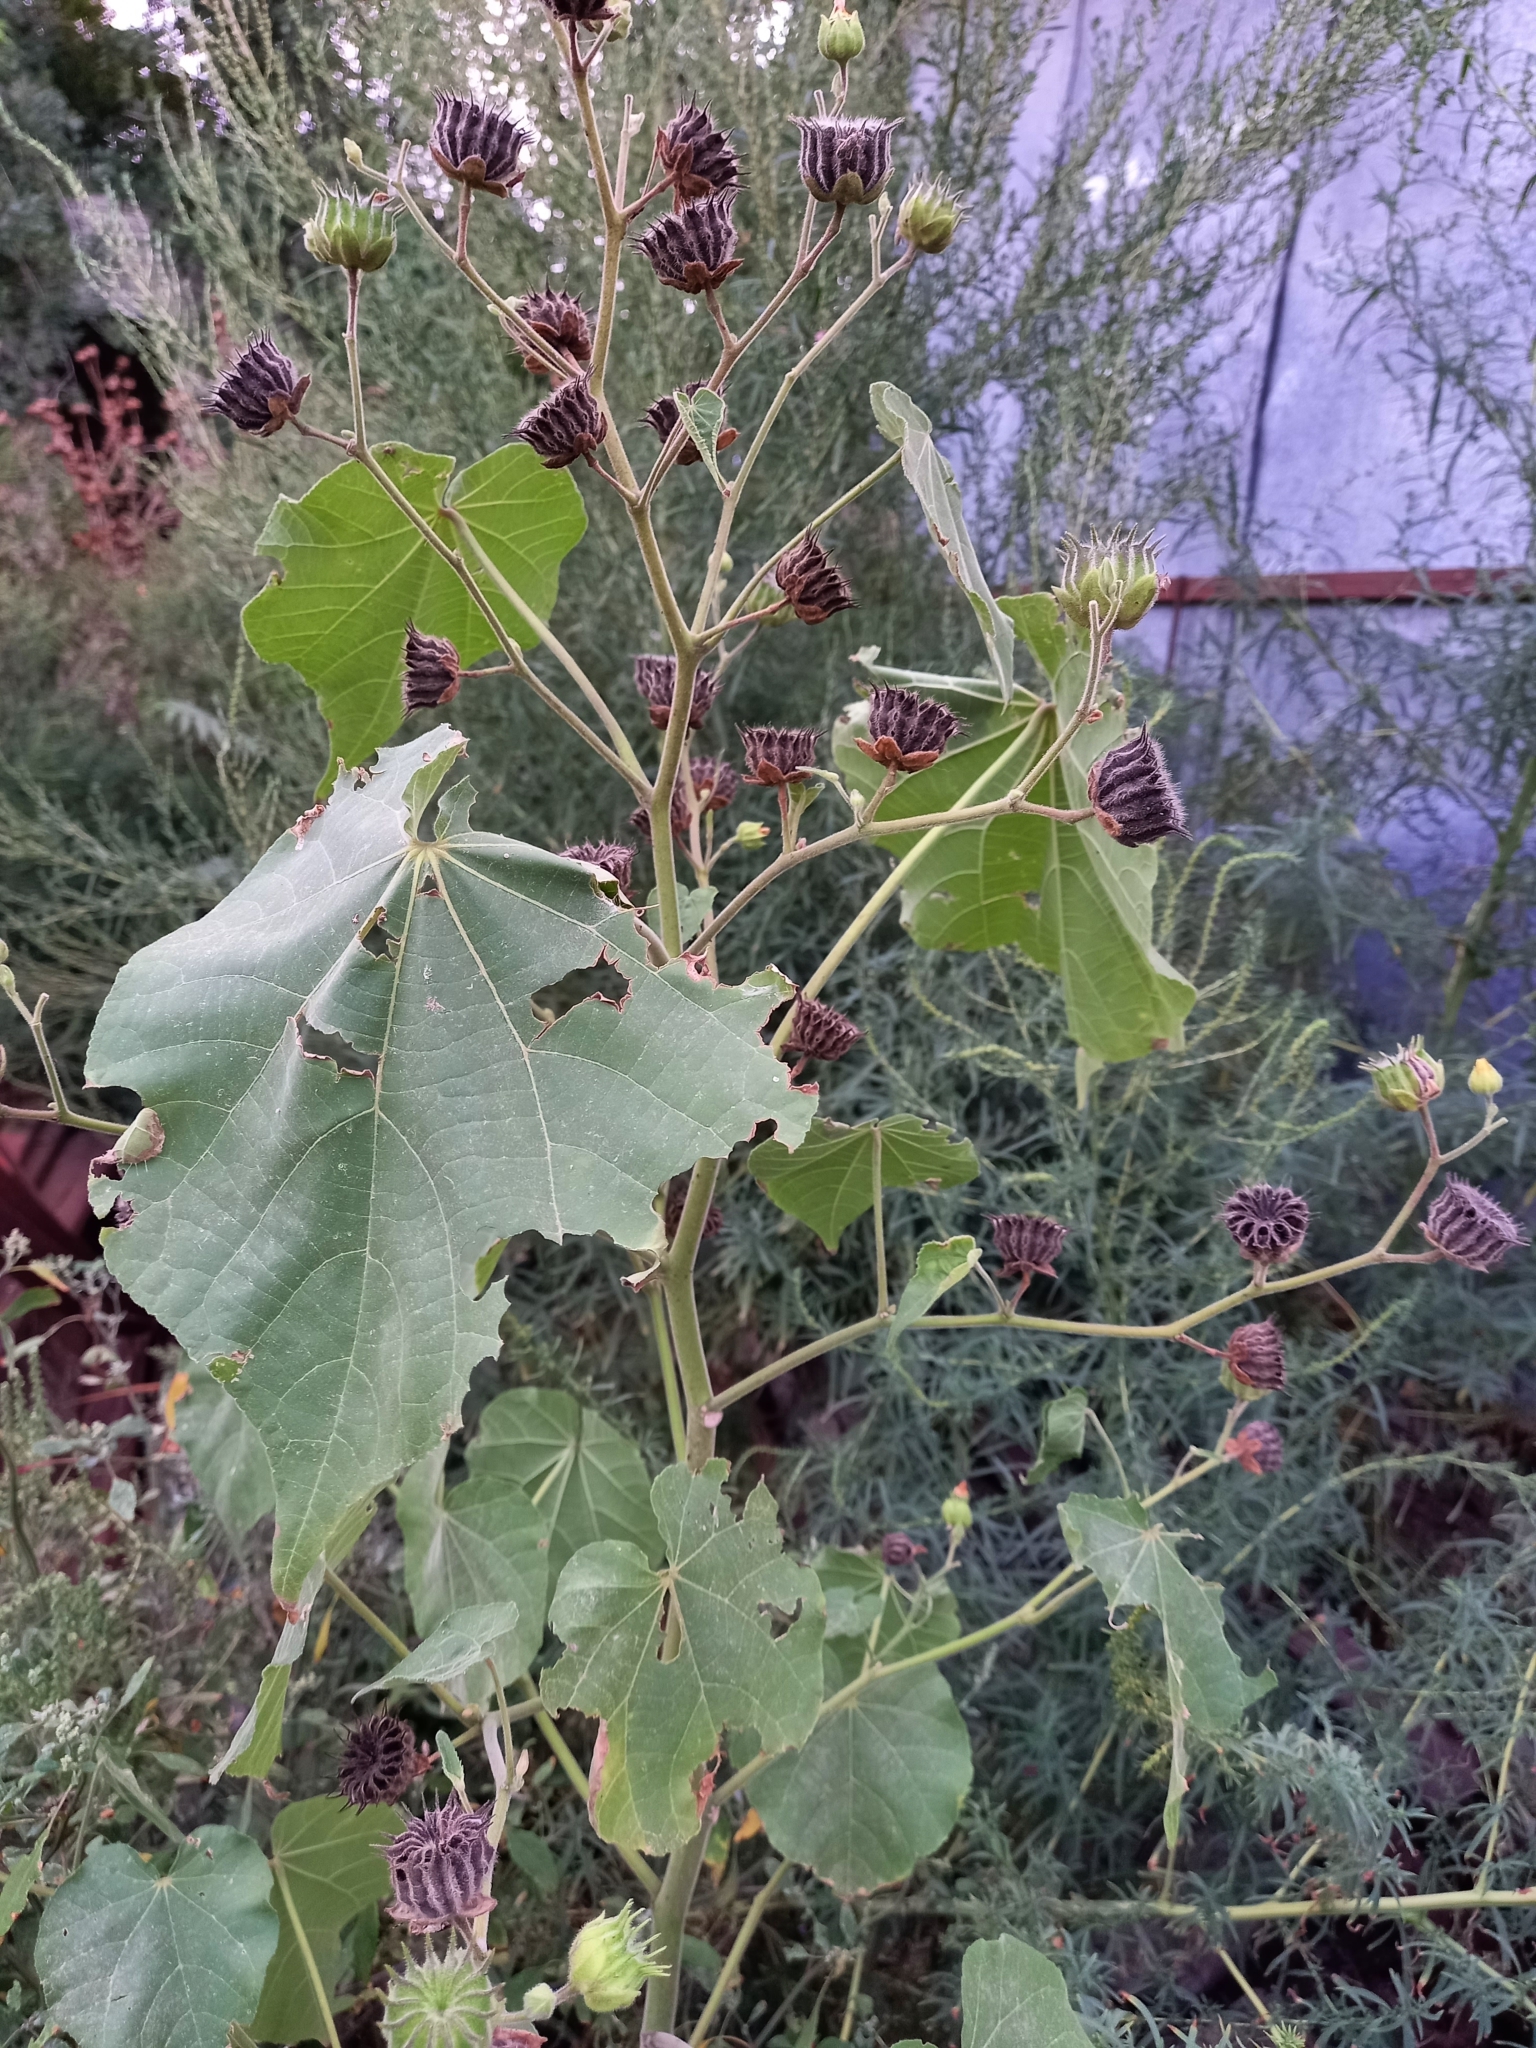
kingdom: Plantae
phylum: Tracheophyta
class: Magnoliopsida
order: Malvales
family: Malvaceae
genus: Abutilon
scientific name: Abutilon theophrasti
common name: Velvetleaf
